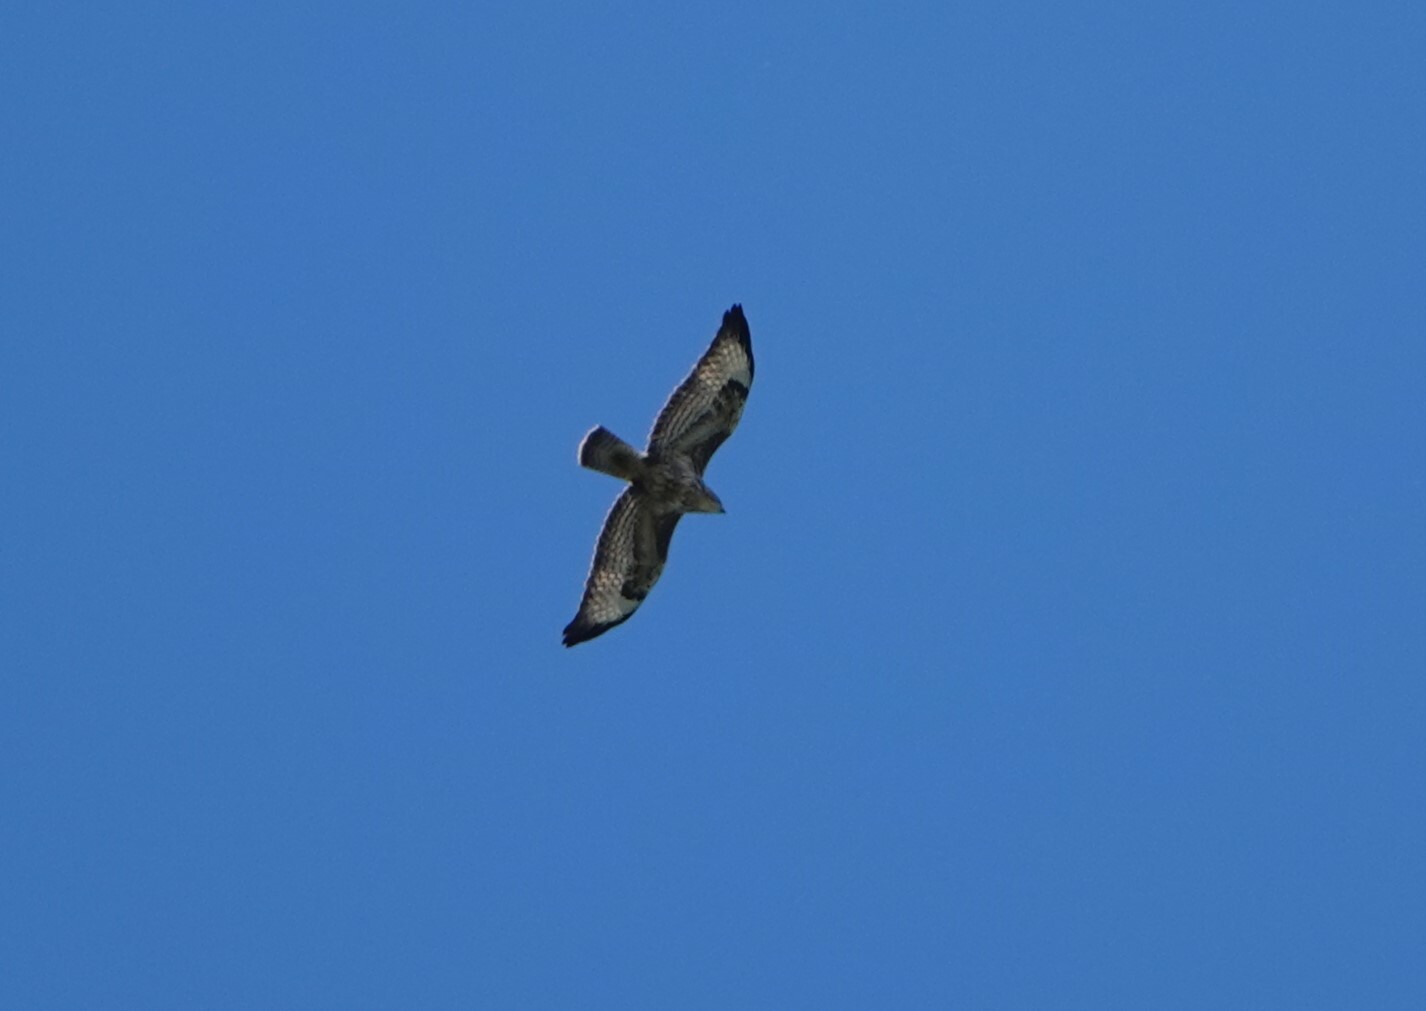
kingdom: Animalia
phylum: Chordata
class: Aves
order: Accipitriformes
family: Accipitridae
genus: Buteo
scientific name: Buteo buteo
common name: Common buzzard
